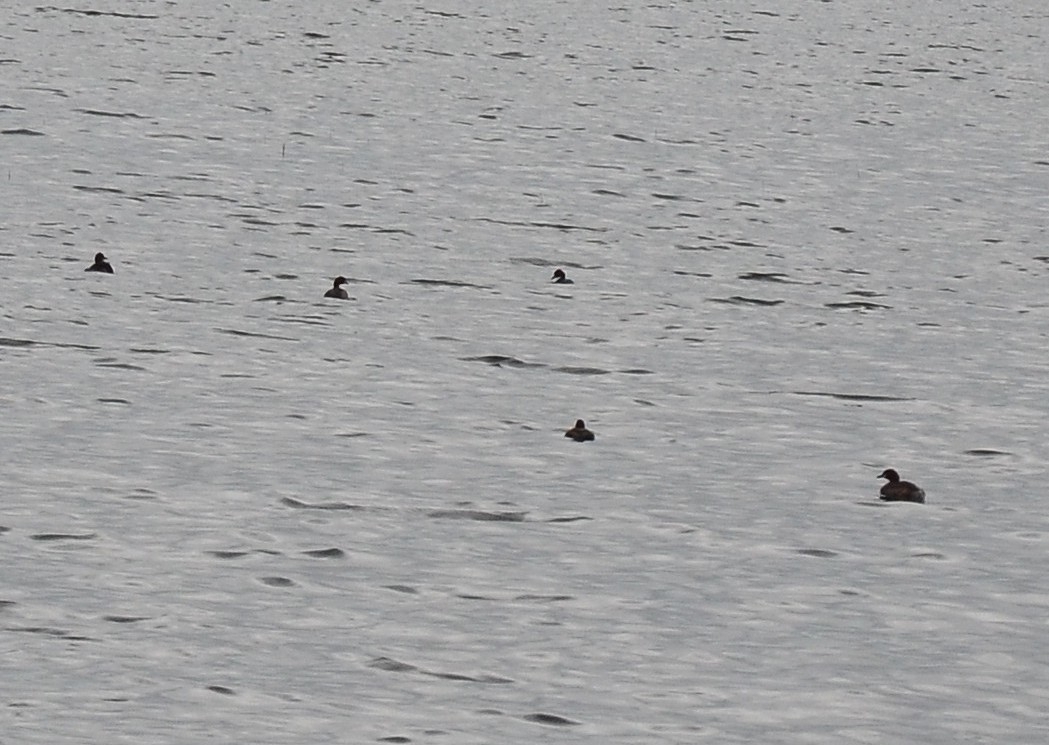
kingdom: Animalia
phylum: Chordata
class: Aves
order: Podicipediformes
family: Podicipedidae
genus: Tachybaptus
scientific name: Tachybaptus ruficollis
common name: Little grebe
